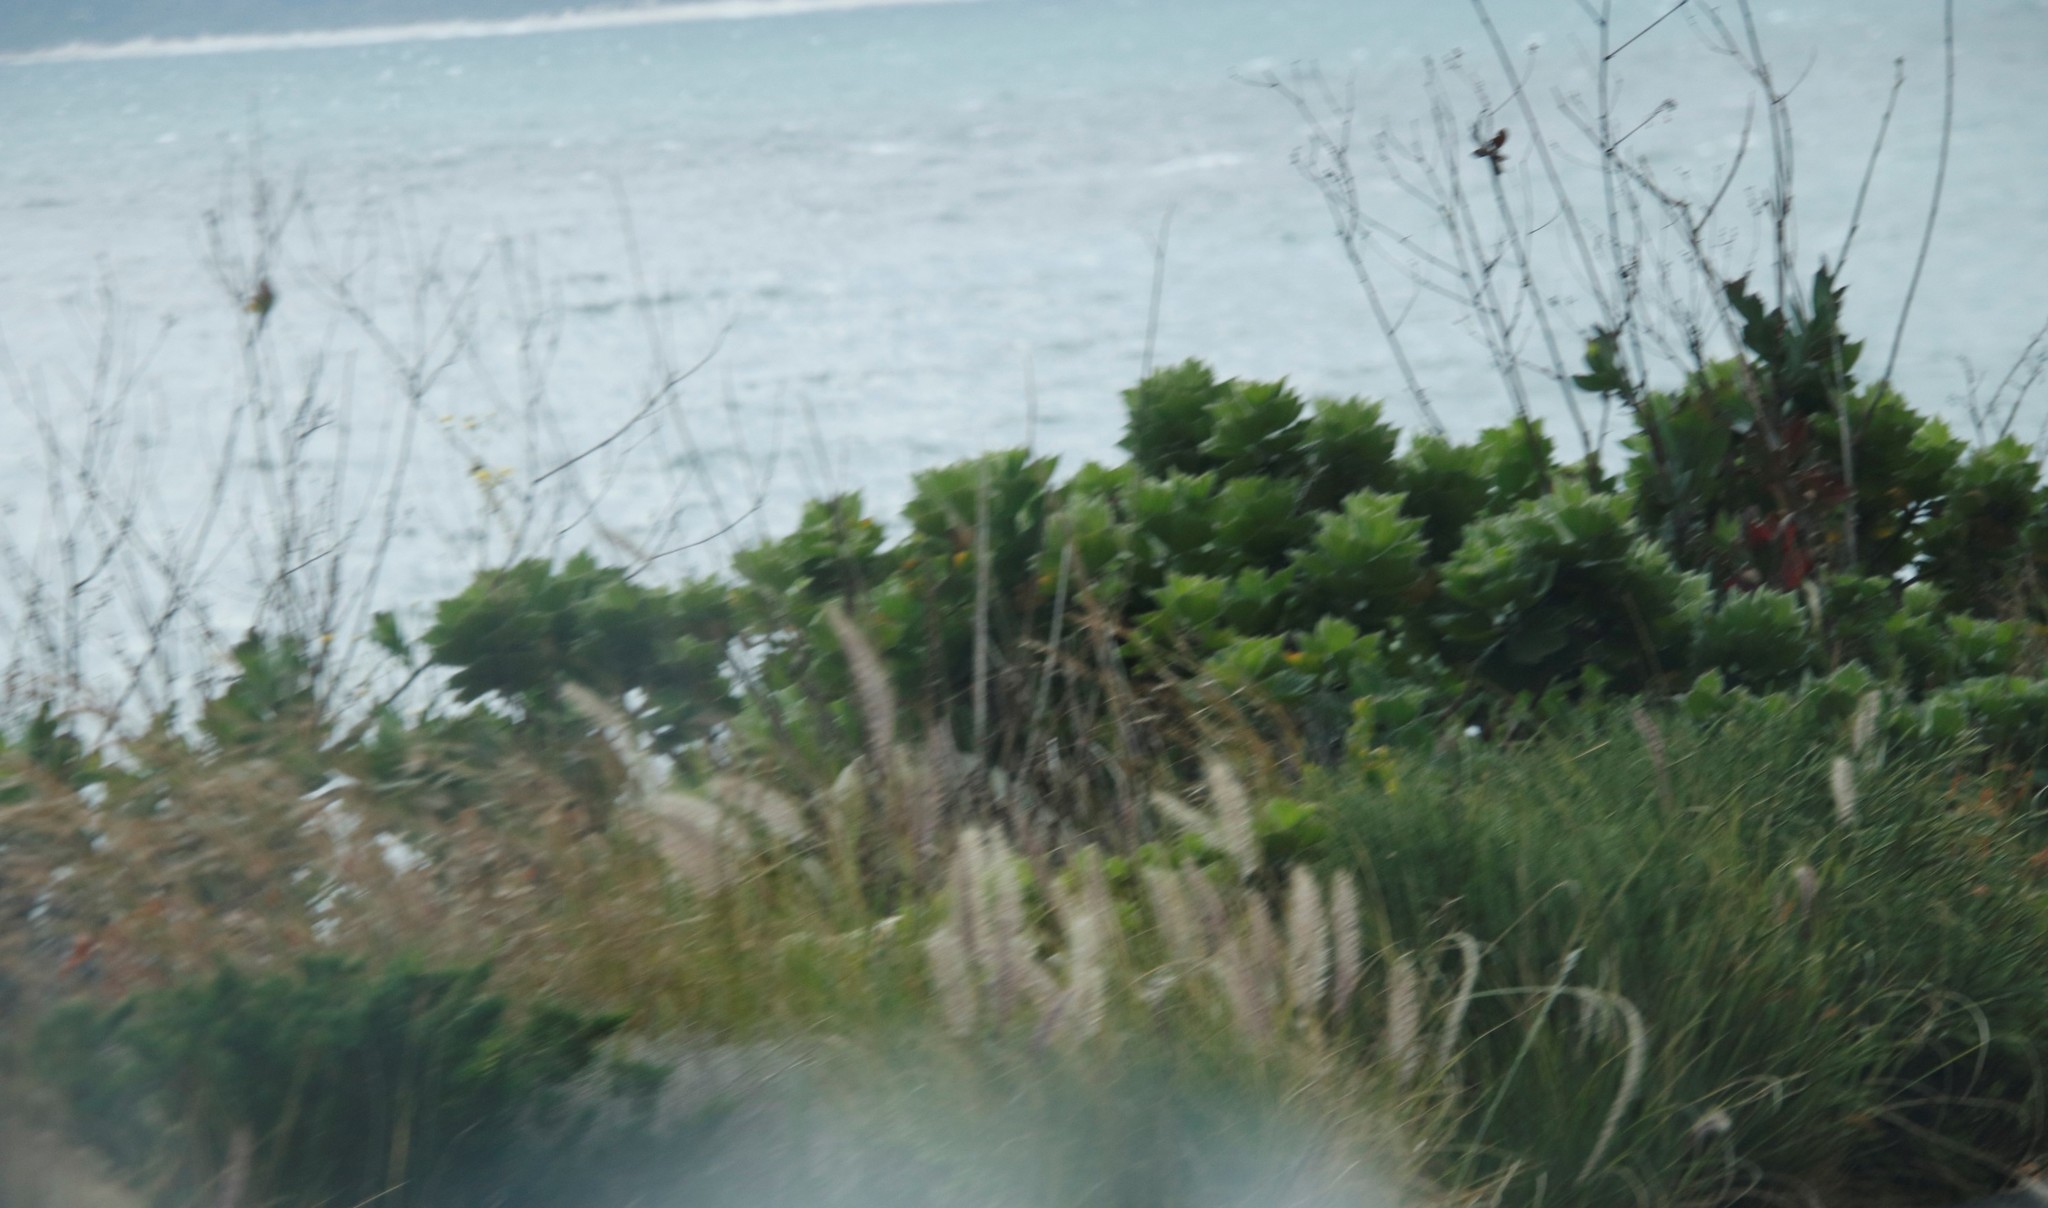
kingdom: Plantae
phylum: Tracheophyta
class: Liliopsida
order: Poales
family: Poaceae
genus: Cenchrus
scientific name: Cenchrus setaceus
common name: Crimson fountaingrass
